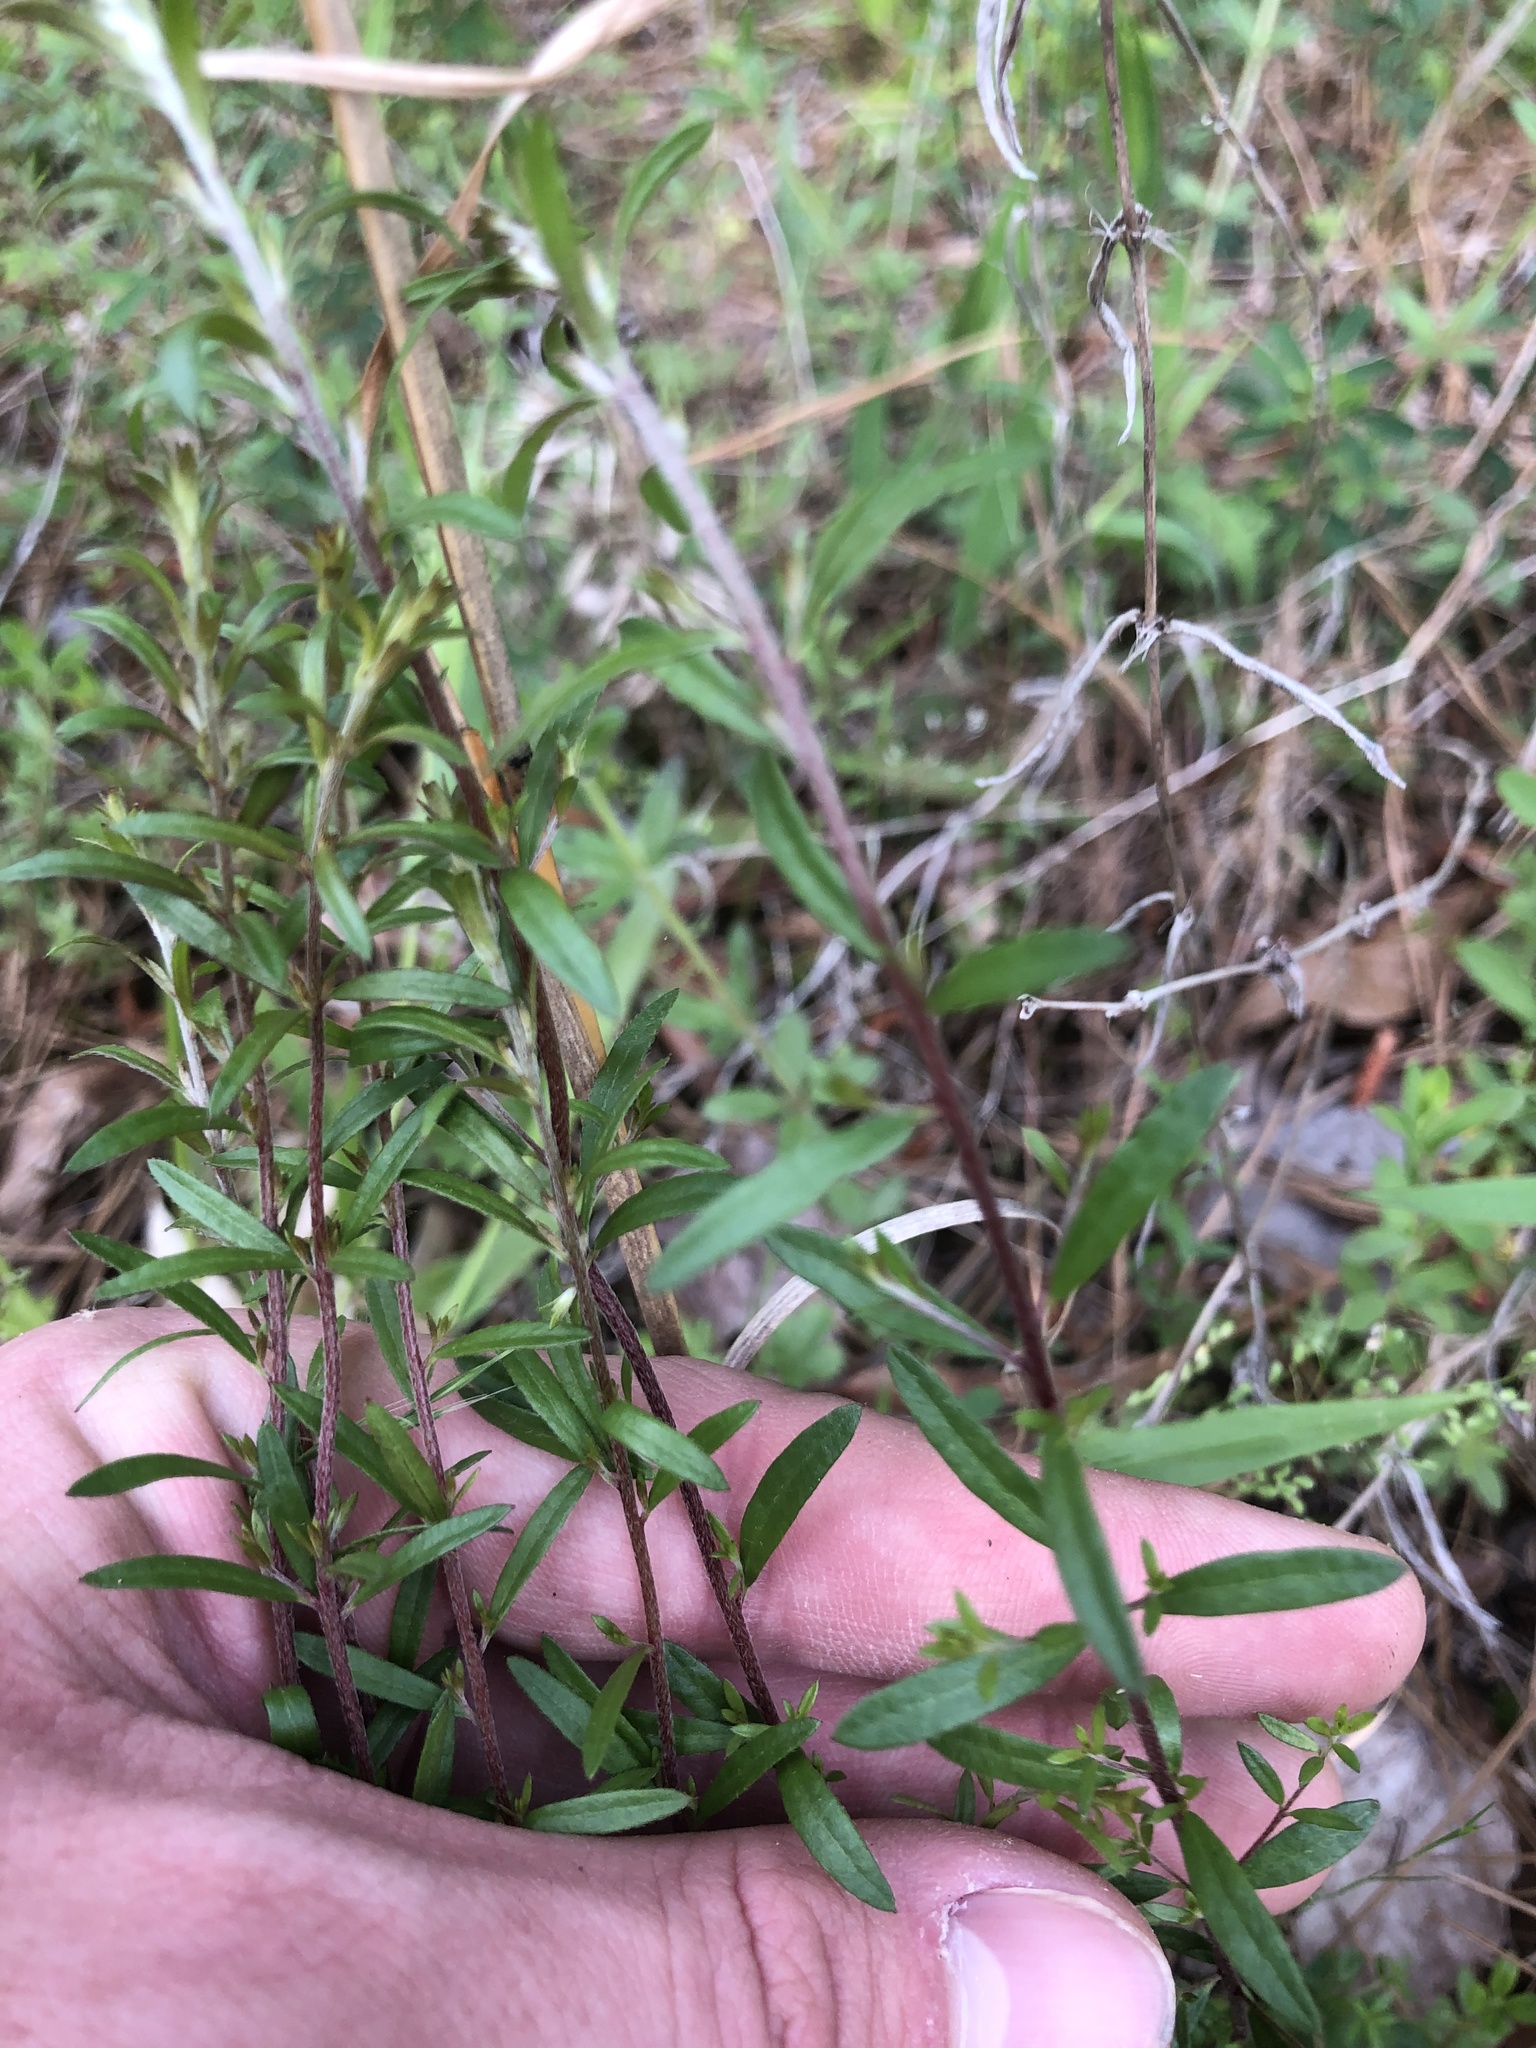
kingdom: Plantae
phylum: Tracheophyta
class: Magnoliopsida
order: Malvales
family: Cistaceae
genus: Lechea
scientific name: Lechea racemulosa
